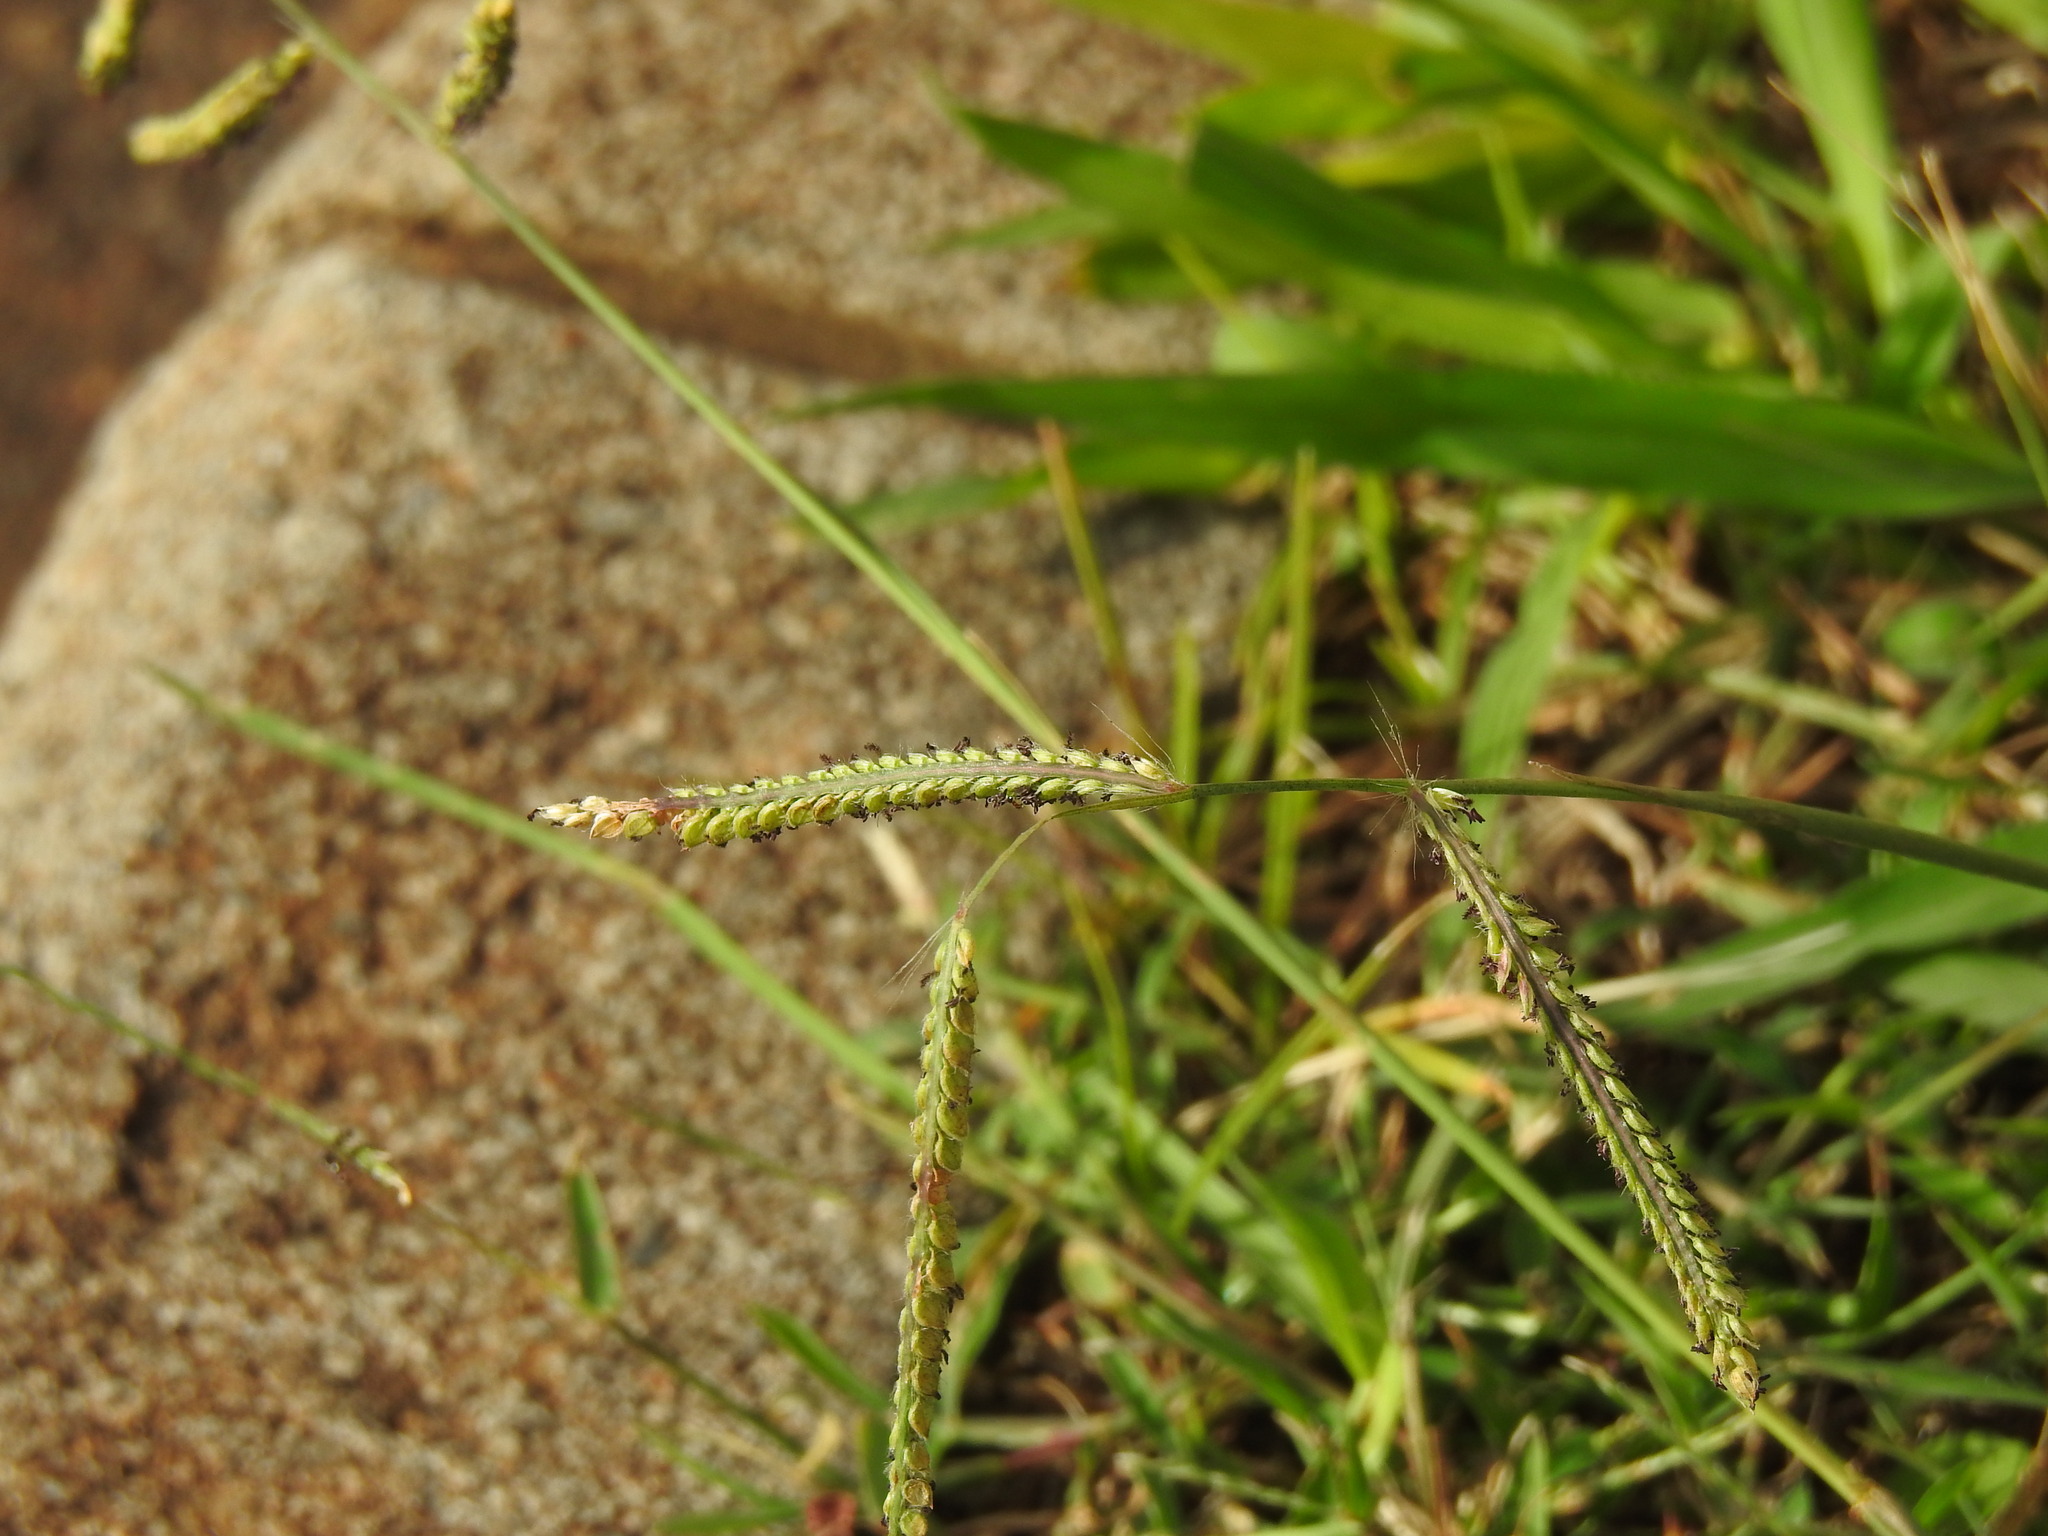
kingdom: Plantae
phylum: Tracheophyta
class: Liliopsida
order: Poales
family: Poaceae
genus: Paspalum
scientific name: Paspalum dilatatum
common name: Dallisgrass
